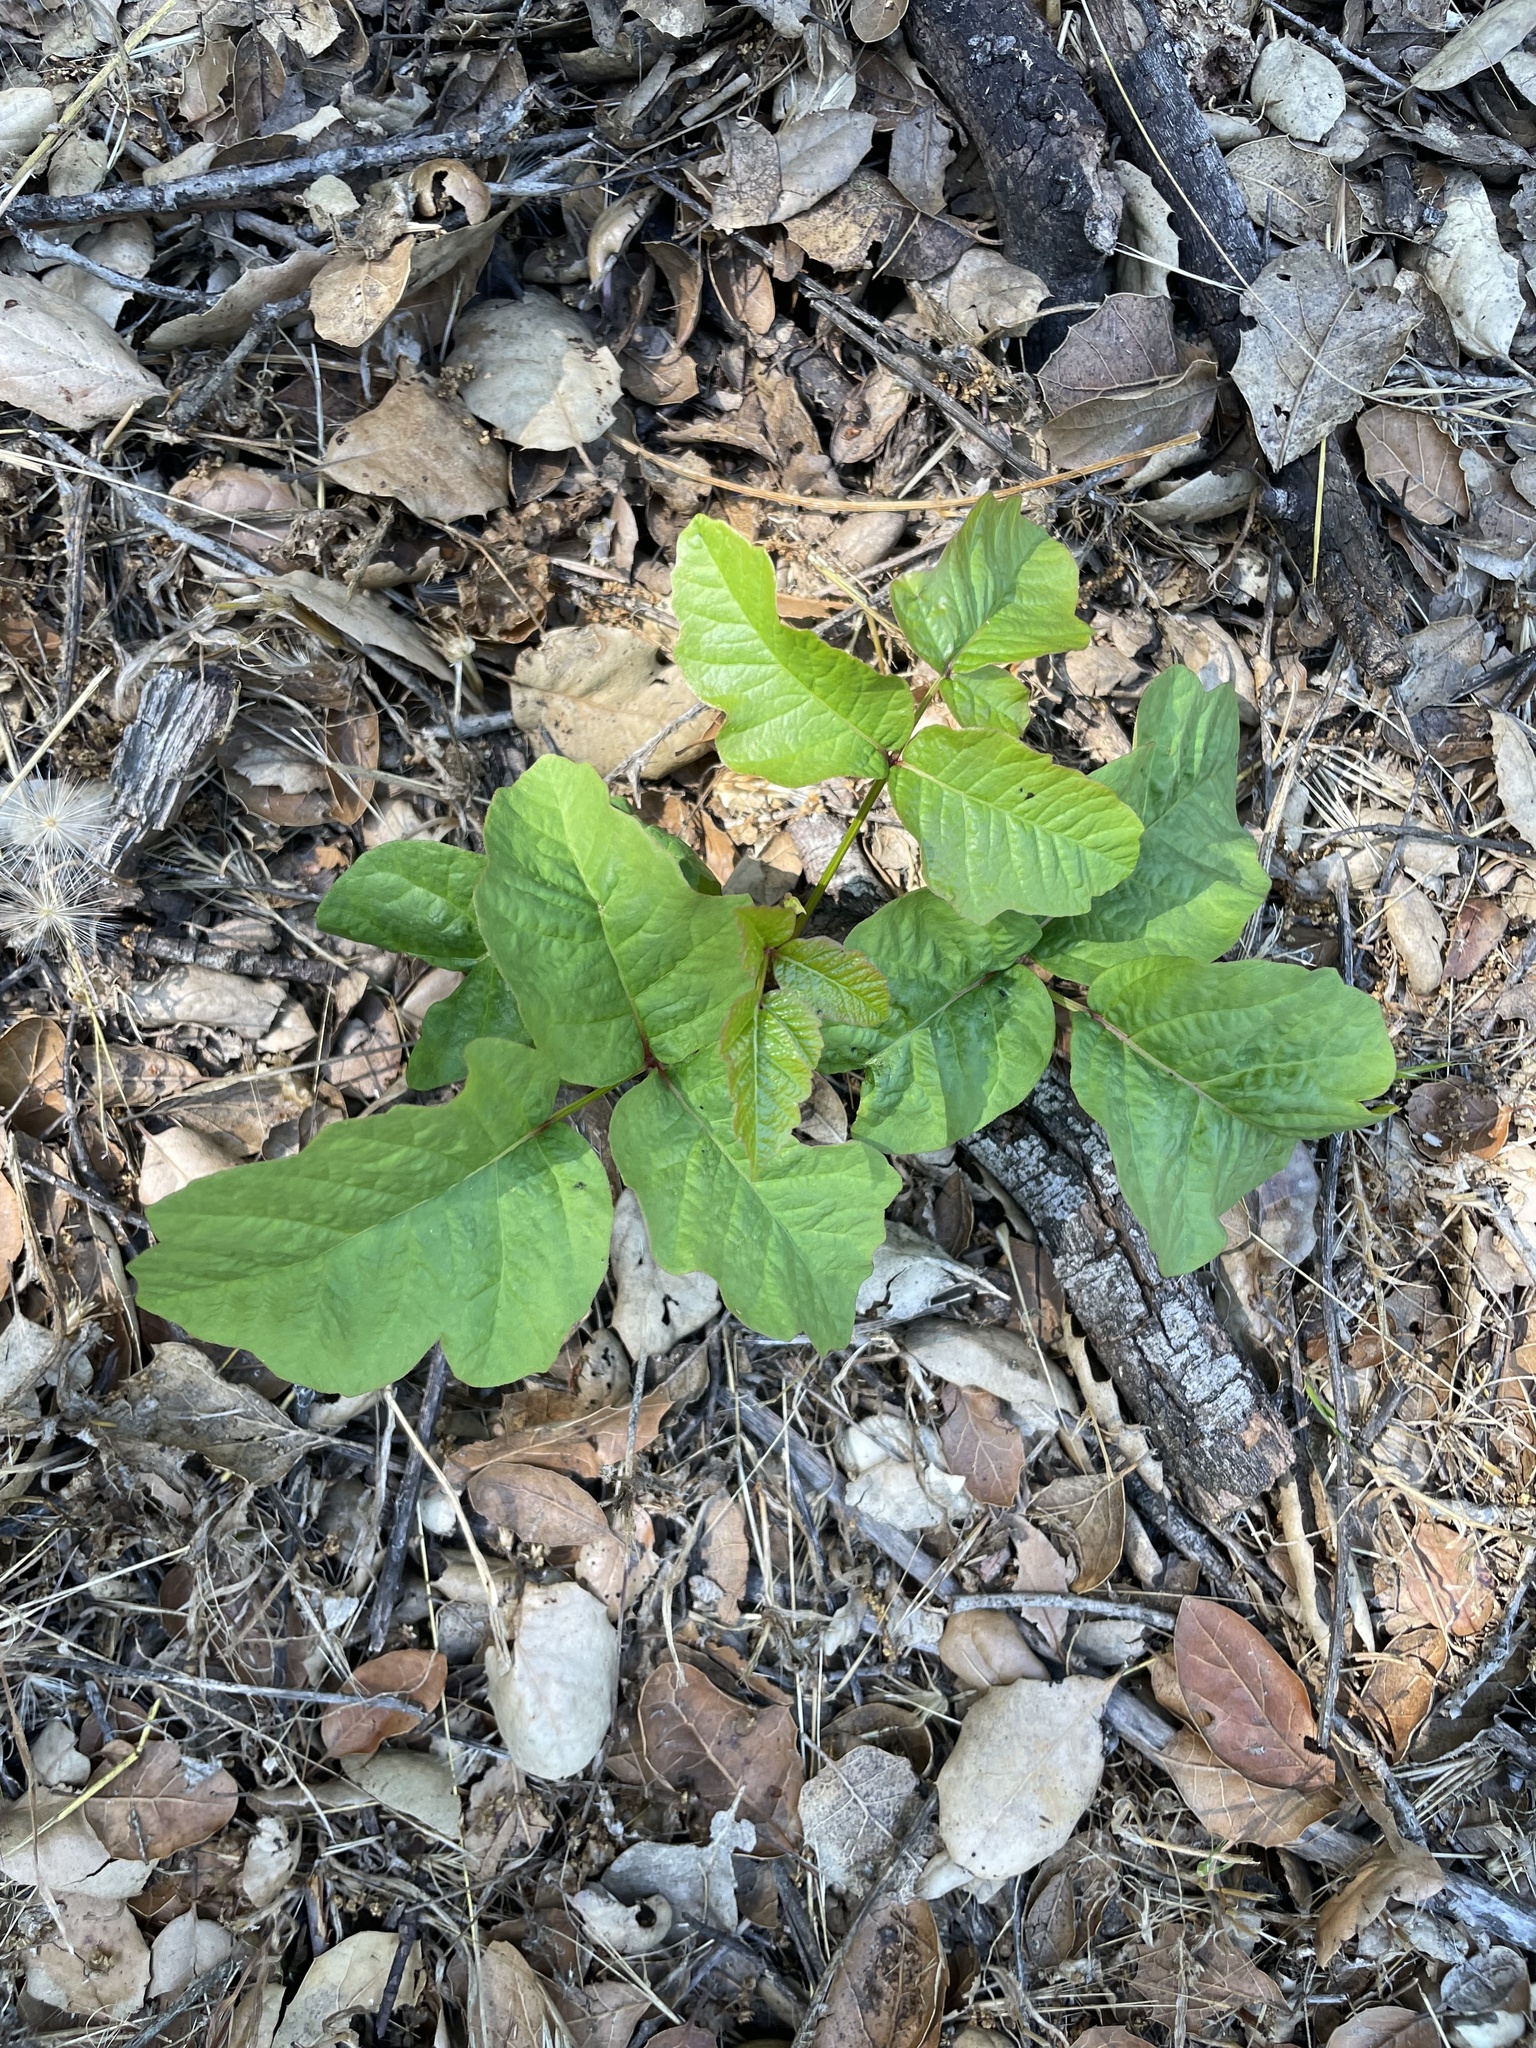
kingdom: Plantae
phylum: Tracheophyta
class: Magnoliopsida
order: Sapindales
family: Anacardiaceae
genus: Toxicodendron
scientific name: Toxicodendron diversilobum
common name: Pacific poison-oak
